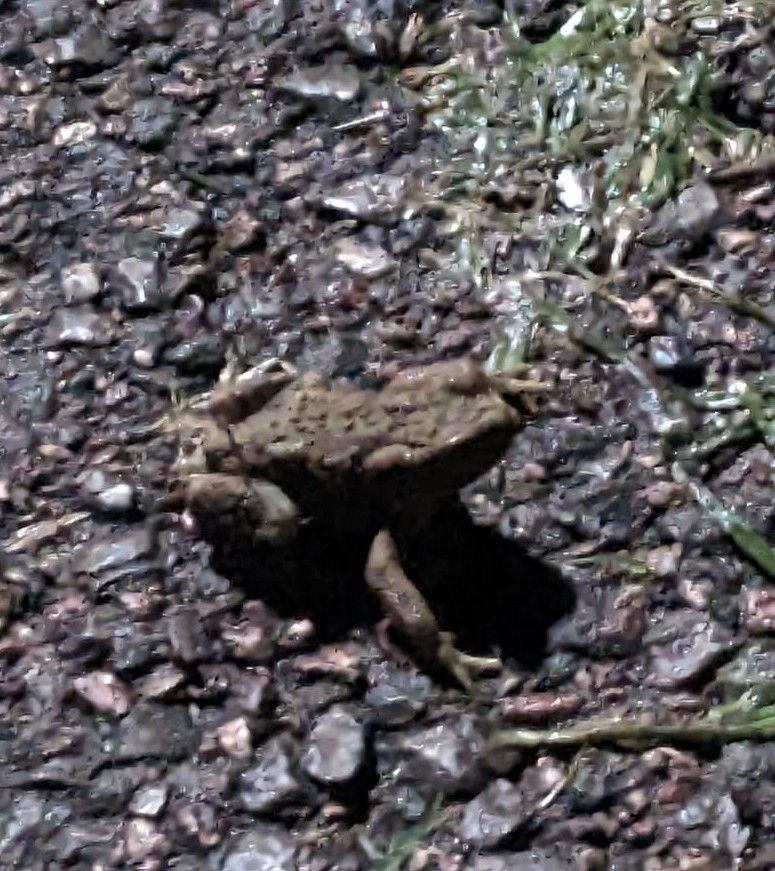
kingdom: Animalia
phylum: Chordata
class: Amphibia
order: Anura
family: Bufonidae
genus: Bufo
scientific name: Bufo bufo
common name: Common toad
